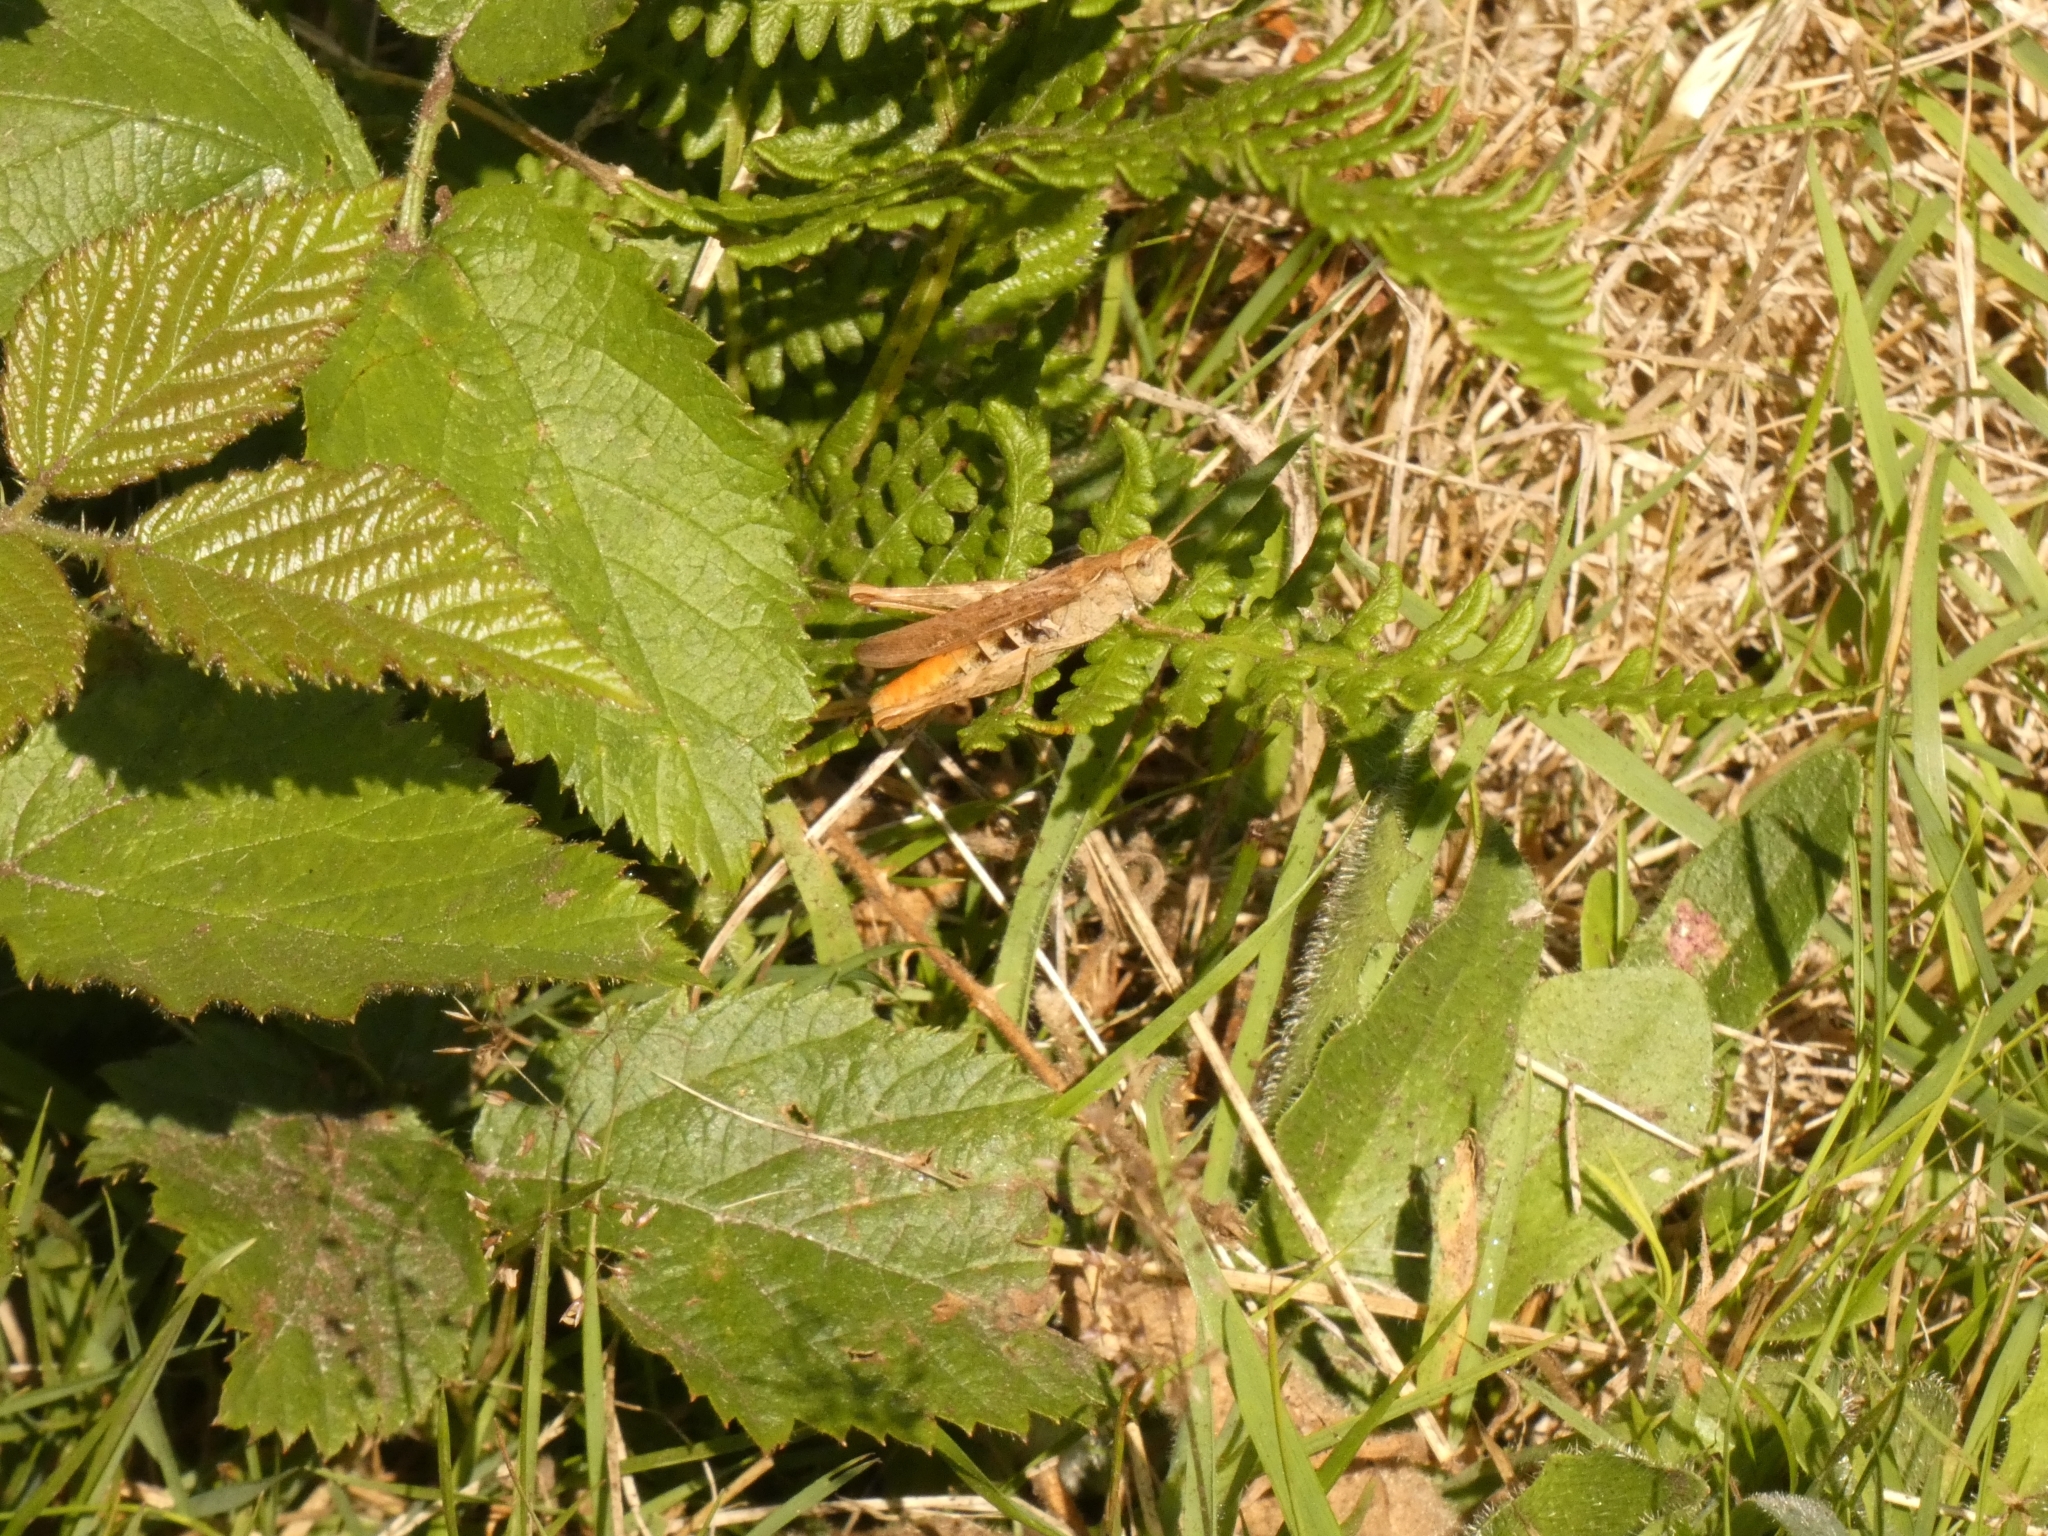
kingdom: Animalia
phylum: Arthropoda
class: Insecta
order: Orthoptera
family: Acrididae
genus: Chorthippus
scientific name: Chorthippus brunneus
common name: Field grasshopper
